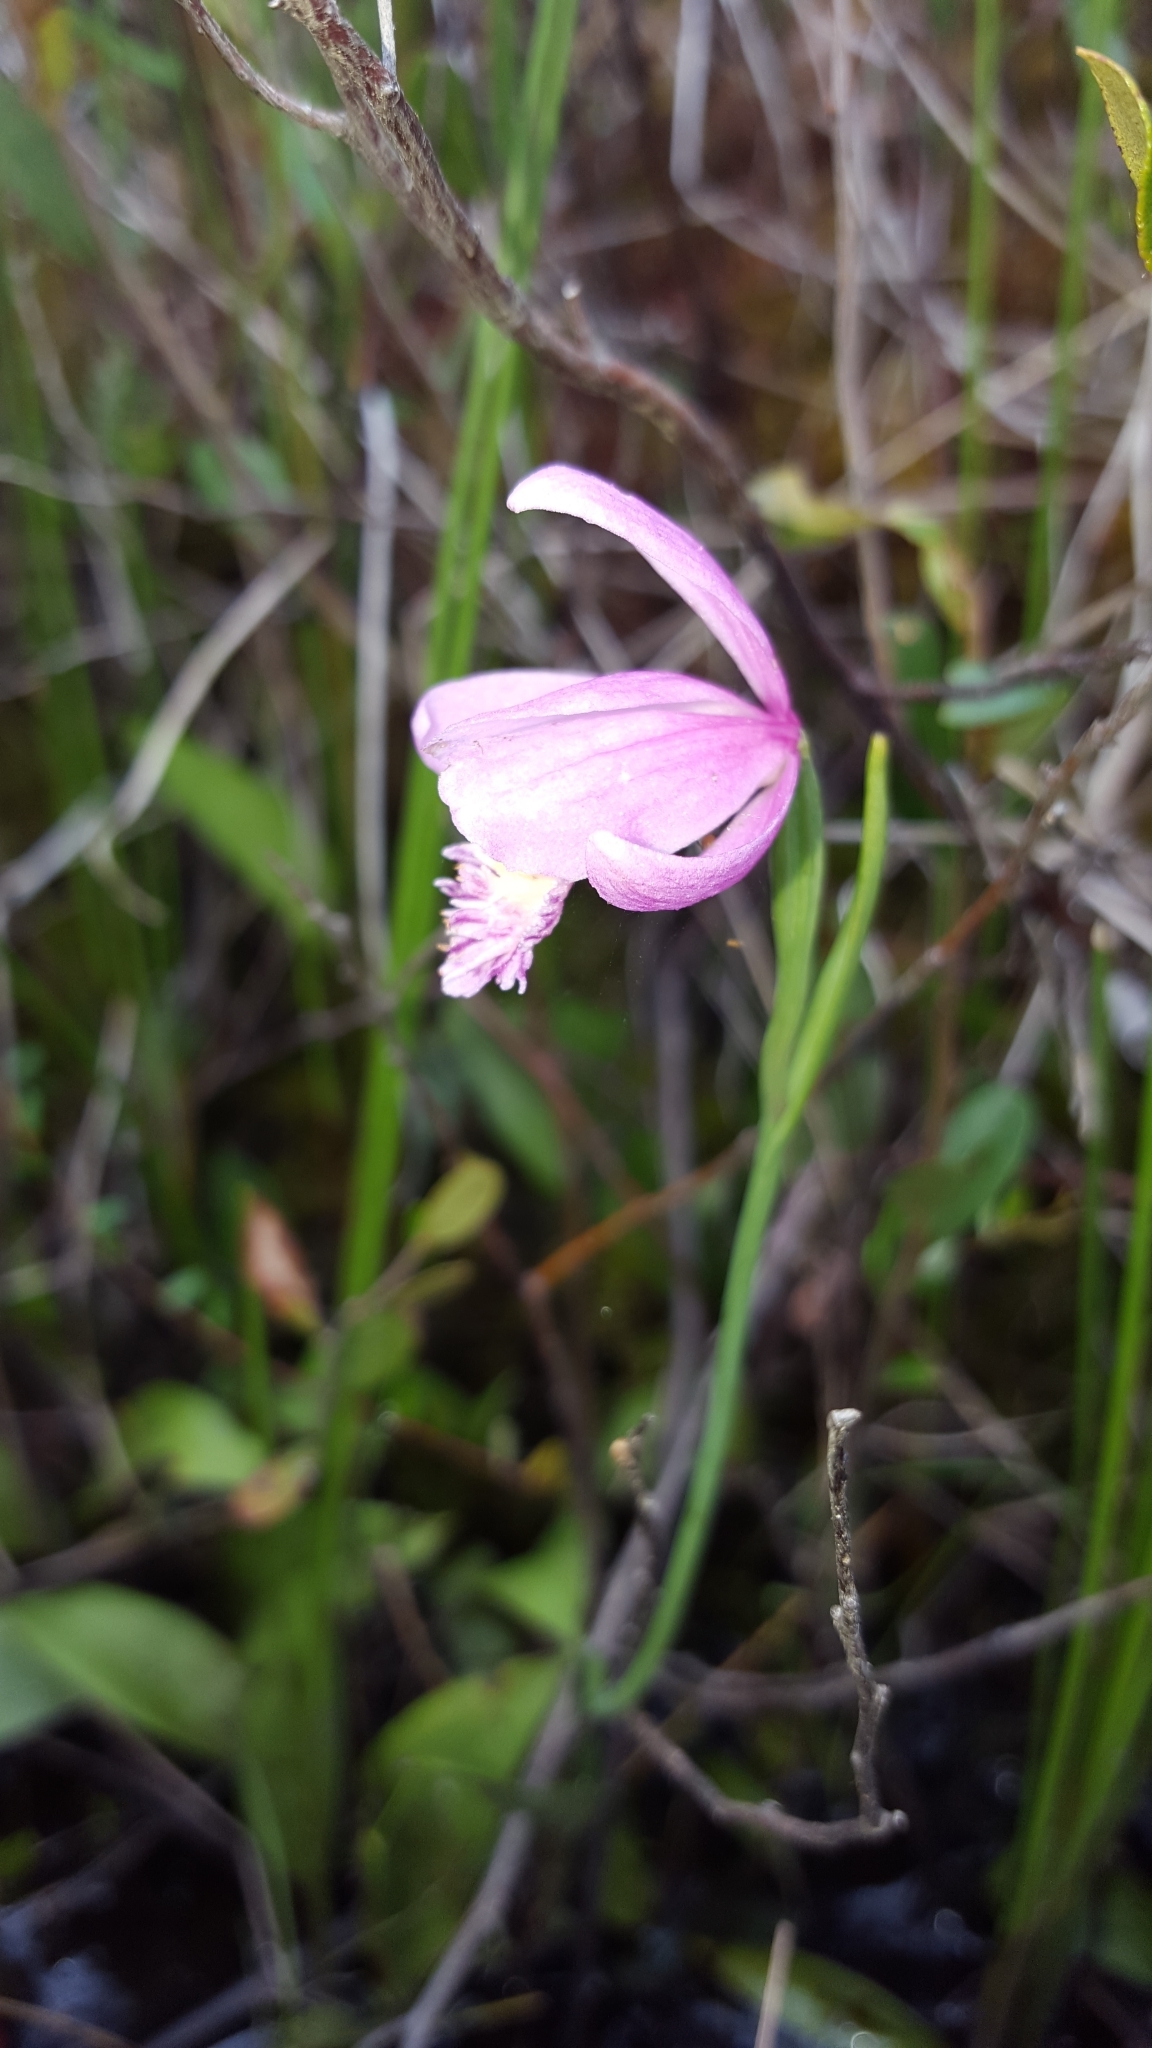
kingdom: Plantae
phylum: Tracheophyta
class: Liliopsida
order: Asparagales
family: Orchidaceae
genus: Pogonia
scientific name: Pogonia ophioglossoides
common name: Rose pogonia
